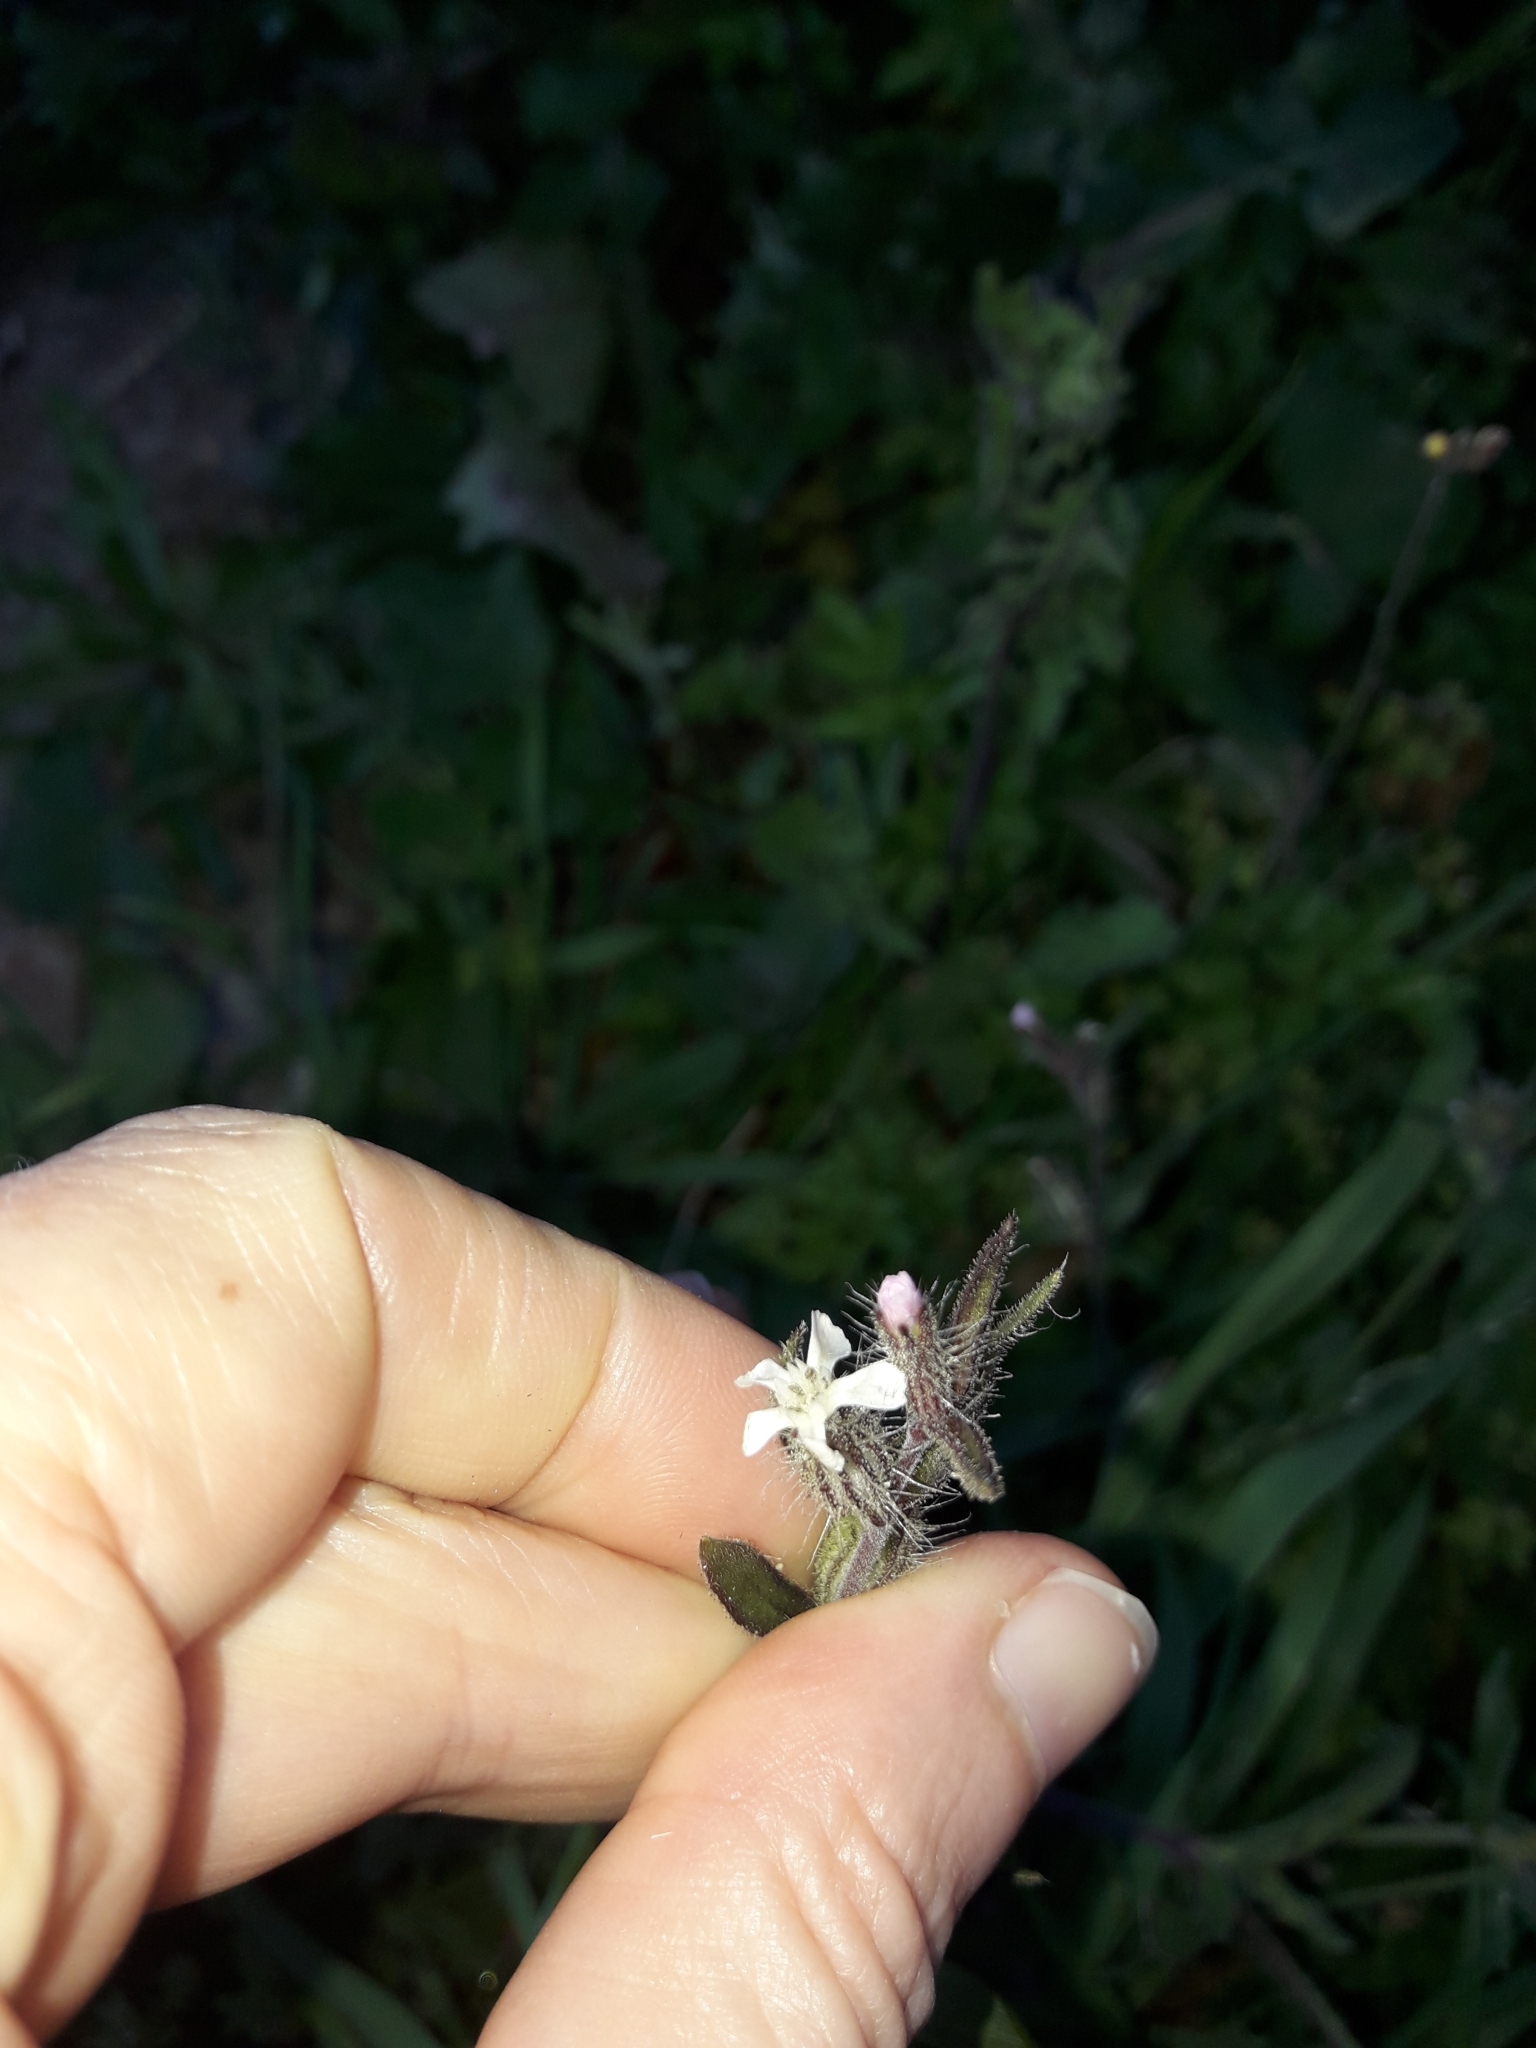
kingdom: Plantae
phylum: Tracheophyta
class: Magnoliopsida
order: Caryophyllales
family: Caryophyllaceae
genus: Silene
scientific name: Silene gallica
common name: Small-flowered catchfly
